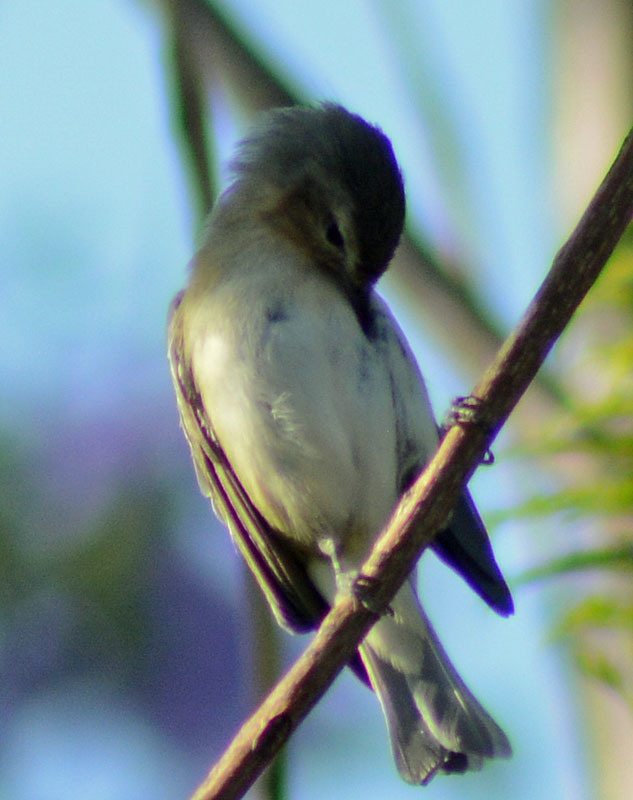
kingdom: Animalia
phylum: Chordata
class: Aves
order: Passeriformes
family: Vireonidae
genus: Vireo
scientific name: Vireo gilvus
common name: Warbling vireo
